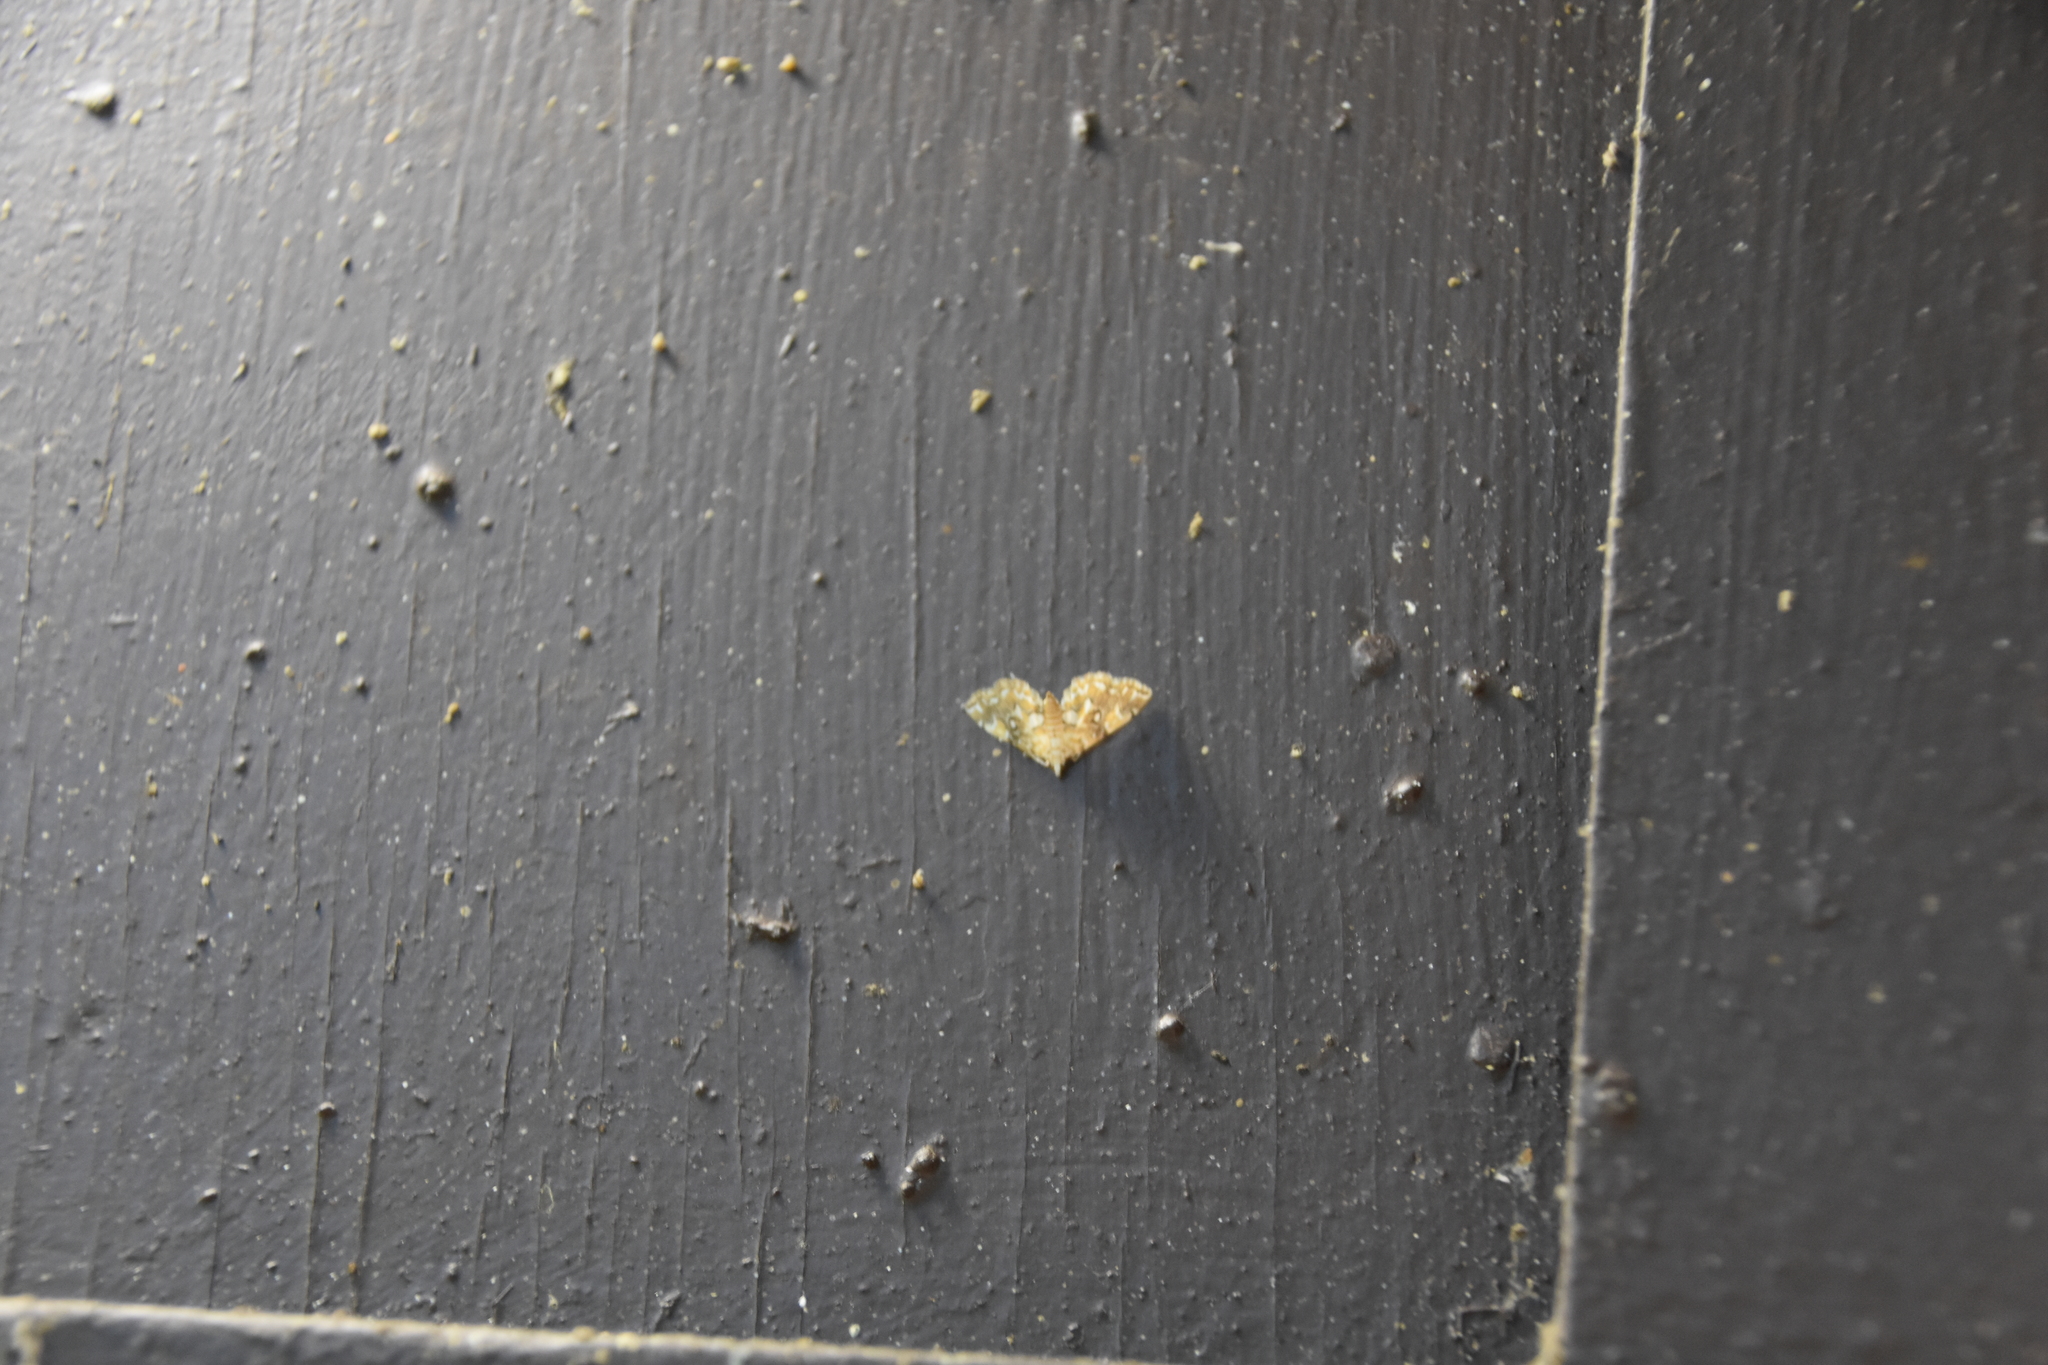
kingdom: Animalia
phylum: Arthropoda
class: Insecta
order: Lepidoptera
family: Crambidae
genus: Elophila
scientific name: Elophila icciusalis
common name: Pondside pyralid moth
